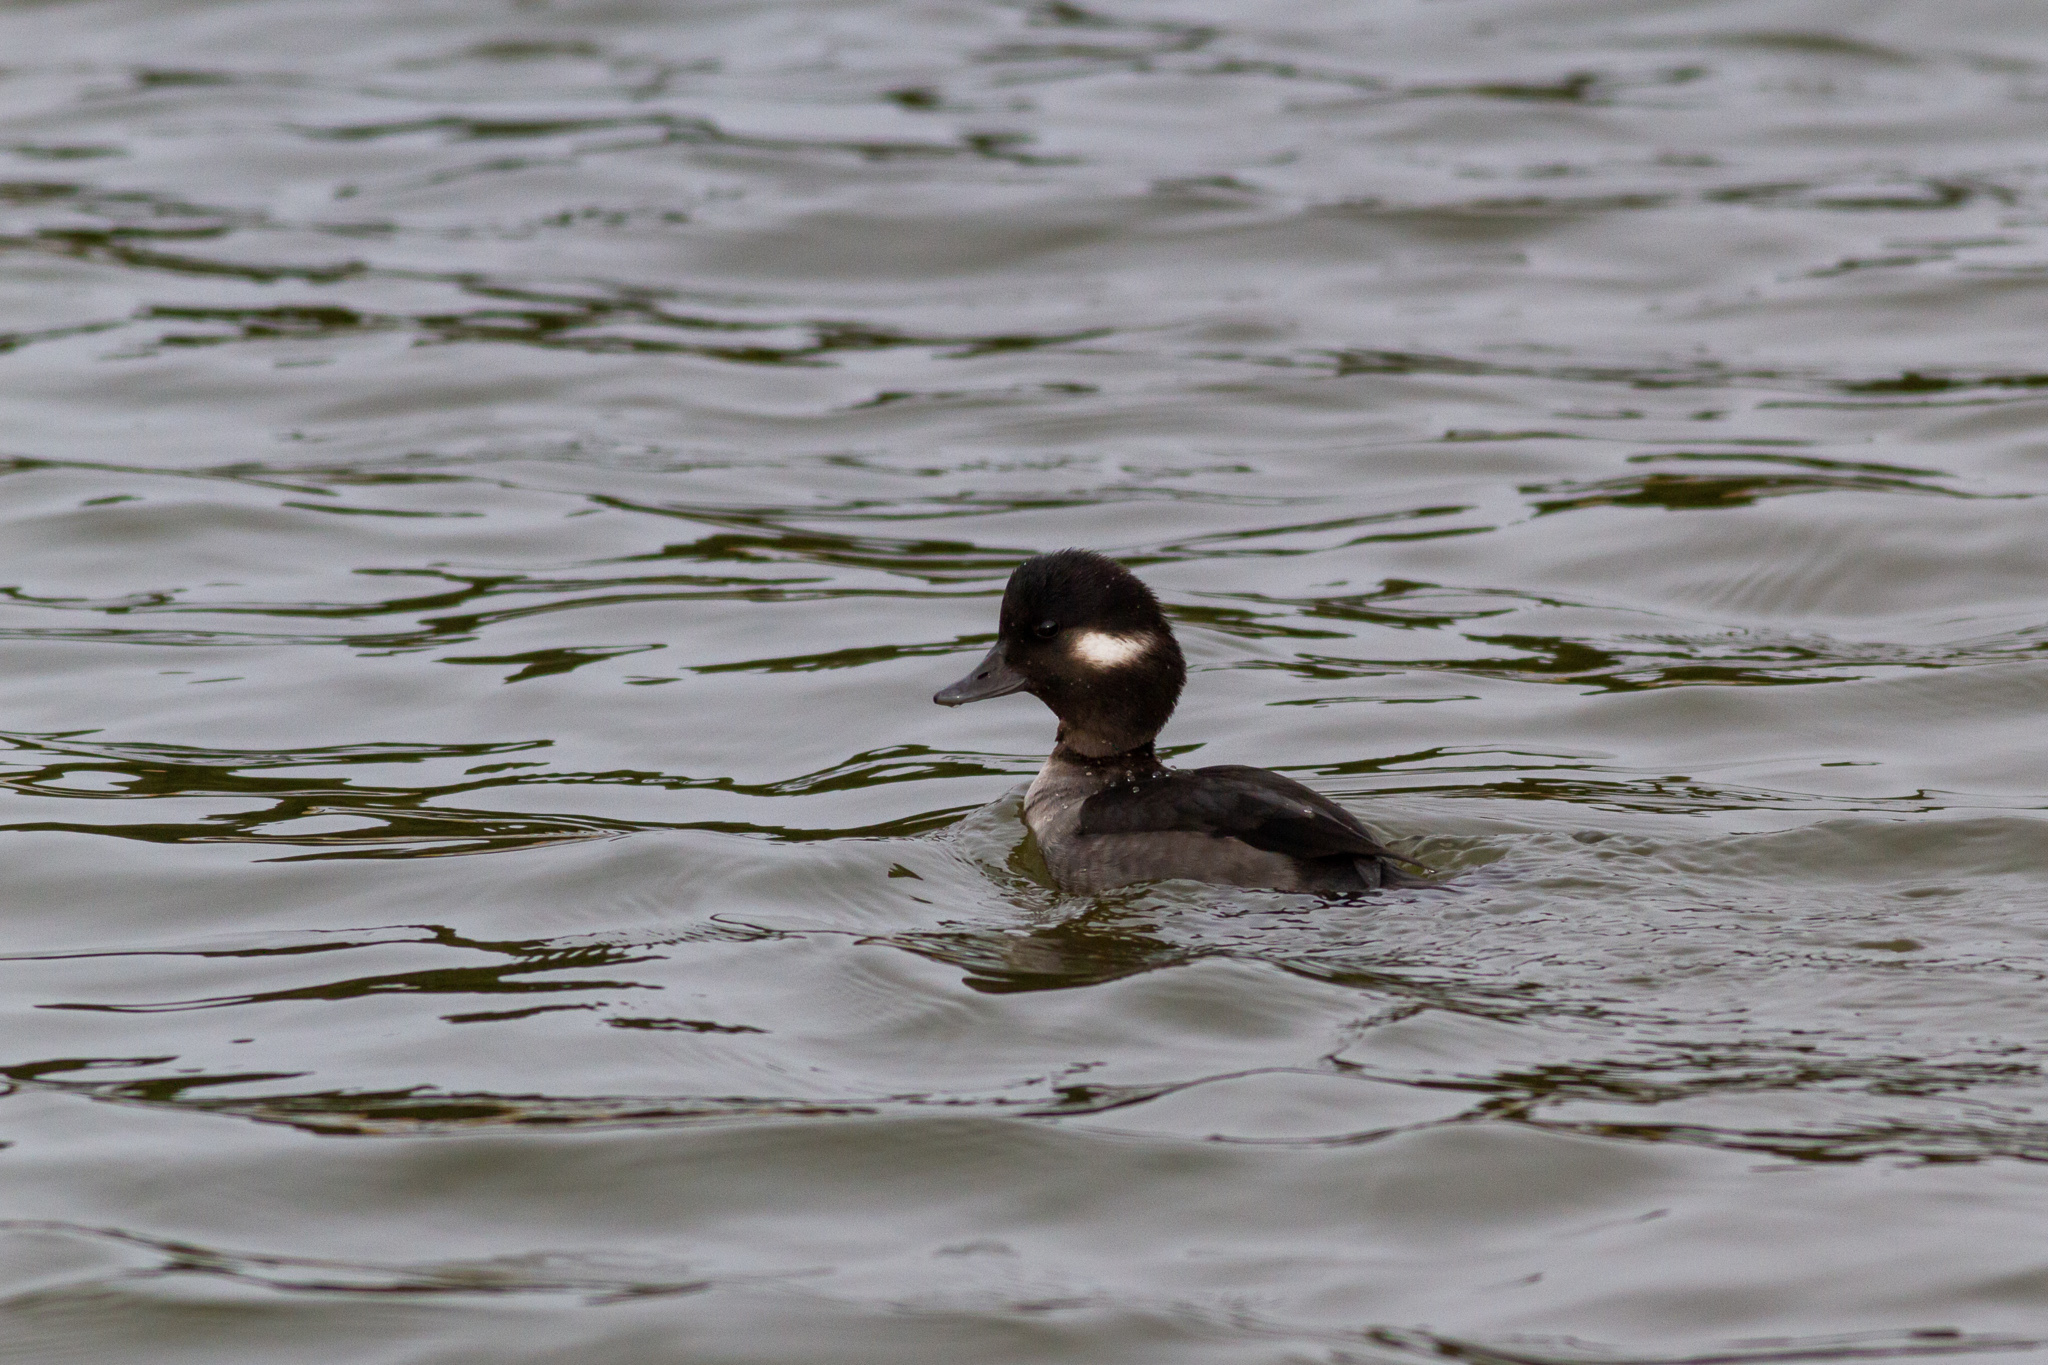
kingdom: Animalia
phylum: Chordata
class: Aves
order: Anseriformes
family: Anatidae
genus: Bucephala
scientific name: Bucephala albeola
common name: Bufflehead
